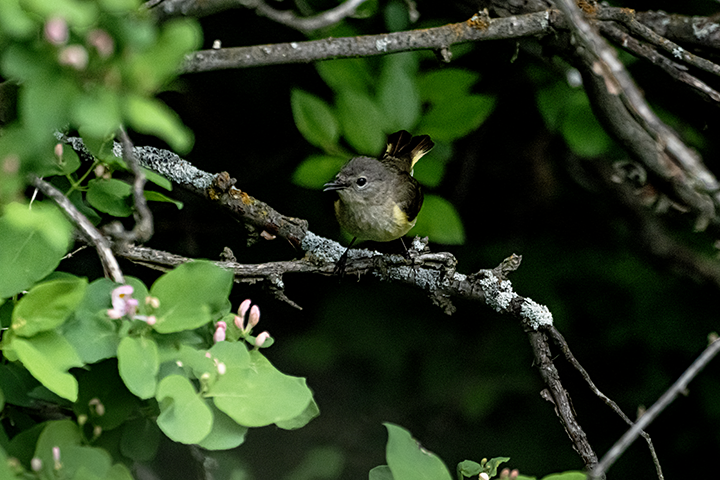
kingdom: Animalia
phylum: Chordata
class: Aves
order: Passeriformes
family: Parulidae
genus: Setophaga
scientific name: Setophaga ruticilla
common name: American redstart
